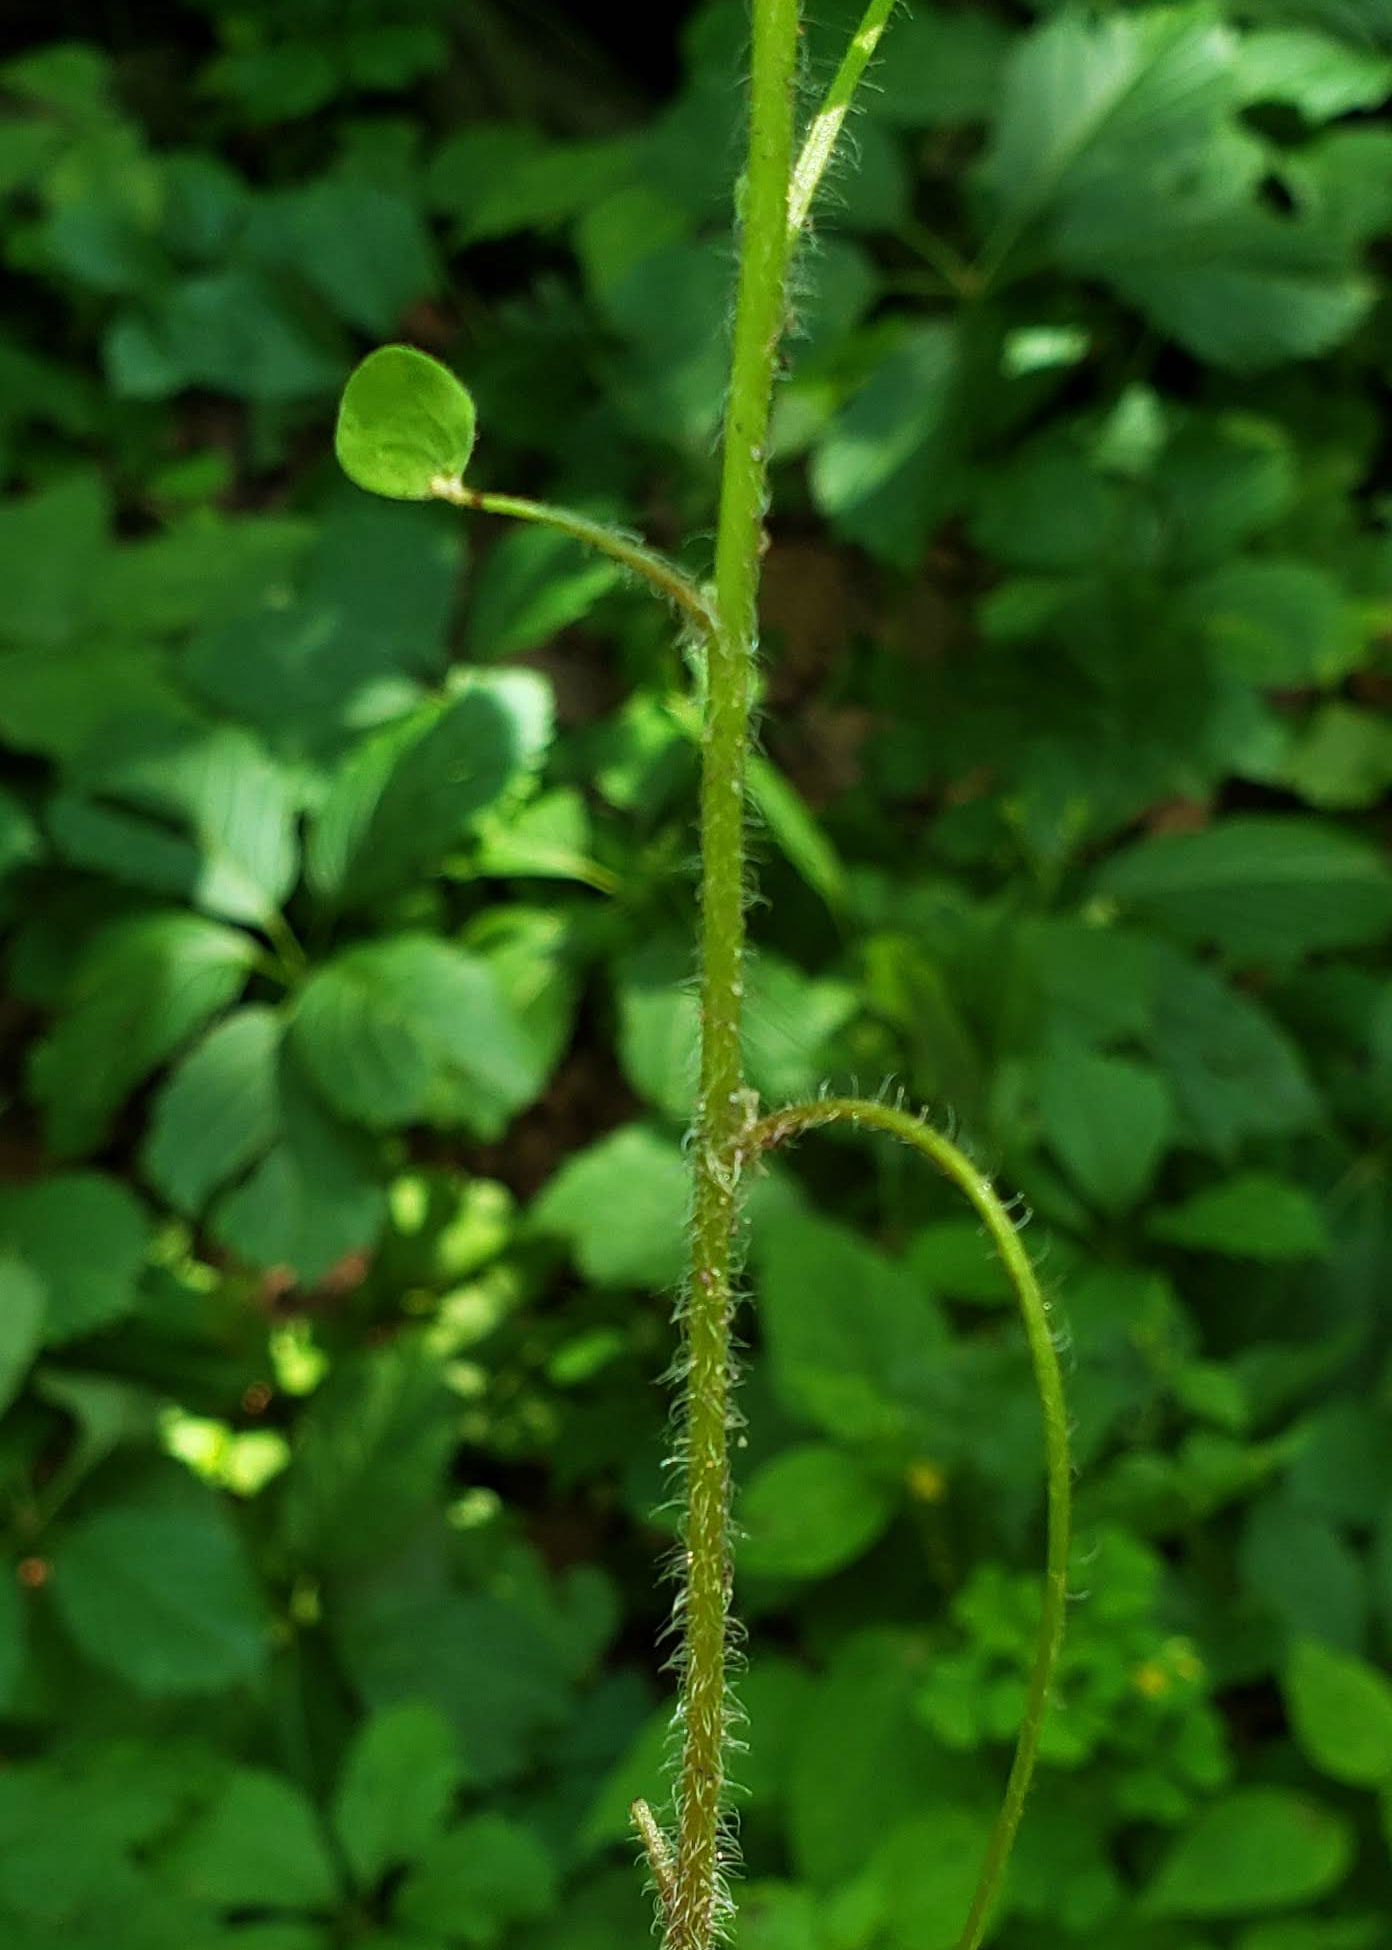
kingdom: Plantae
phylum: Tracheophyta
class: Magnoliopsida
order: Oxalidales
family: Oxalidaceae
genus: Oxalis
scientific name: Oxalis stricta
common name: Upright yellow-sorrel
